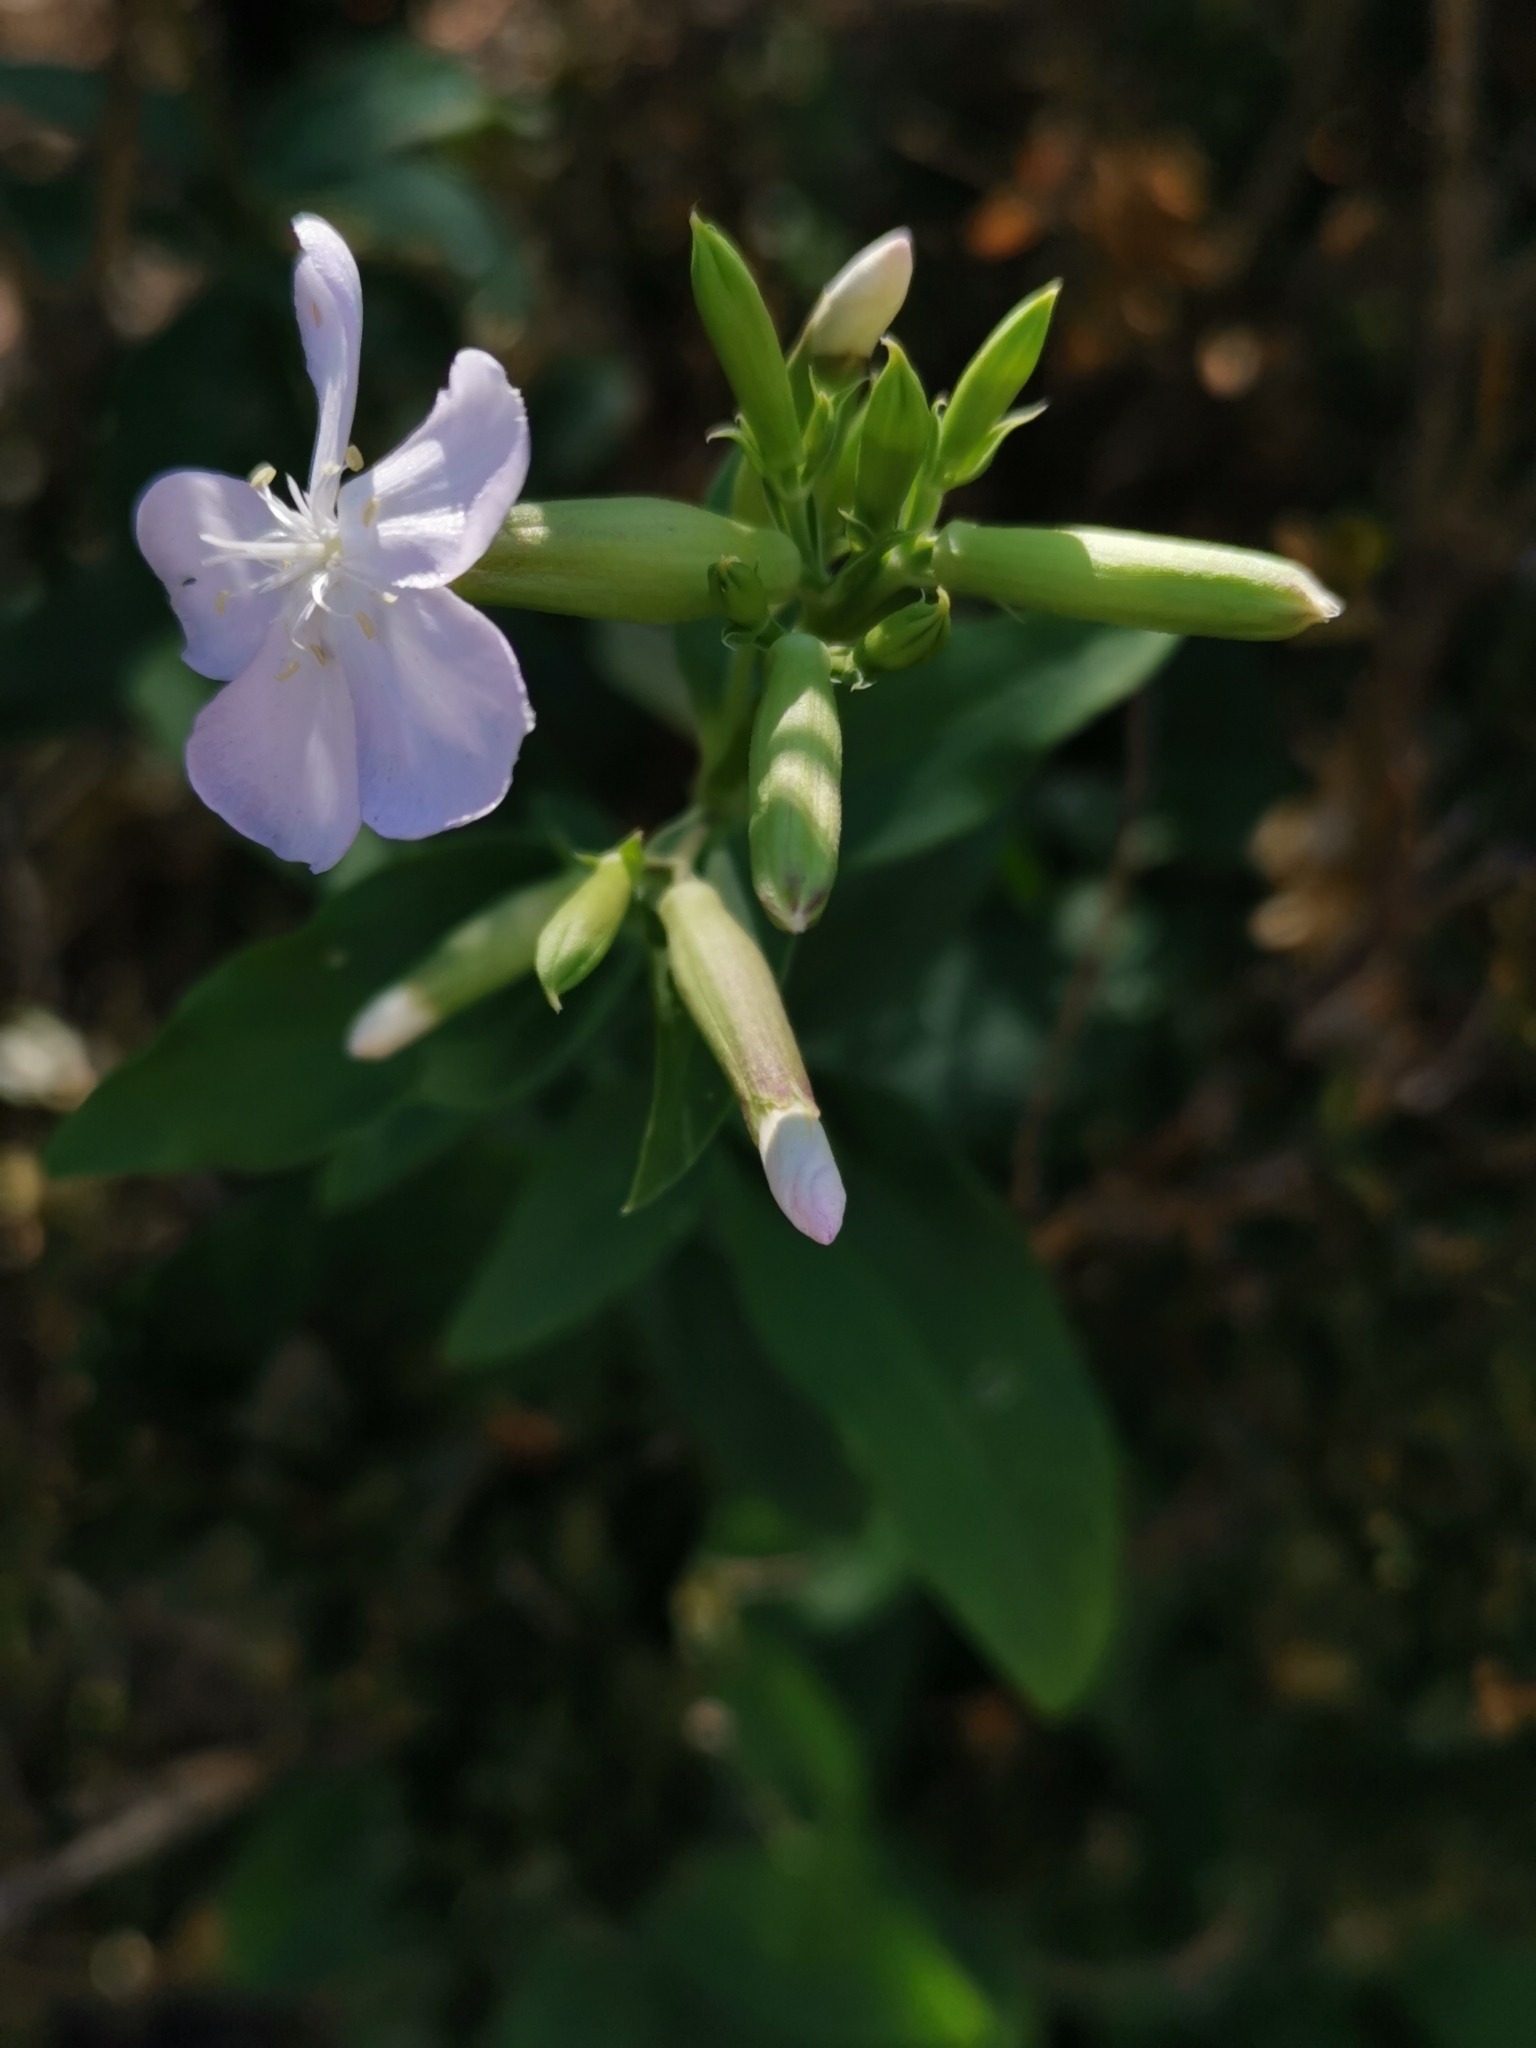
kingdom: Plantae
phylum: Tracheophyta
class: Magnoliopsida
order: Caryophyllales
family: Caryophyllaceae
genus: Saponaria
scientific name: Saponaria officinalis
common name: Soapwort
